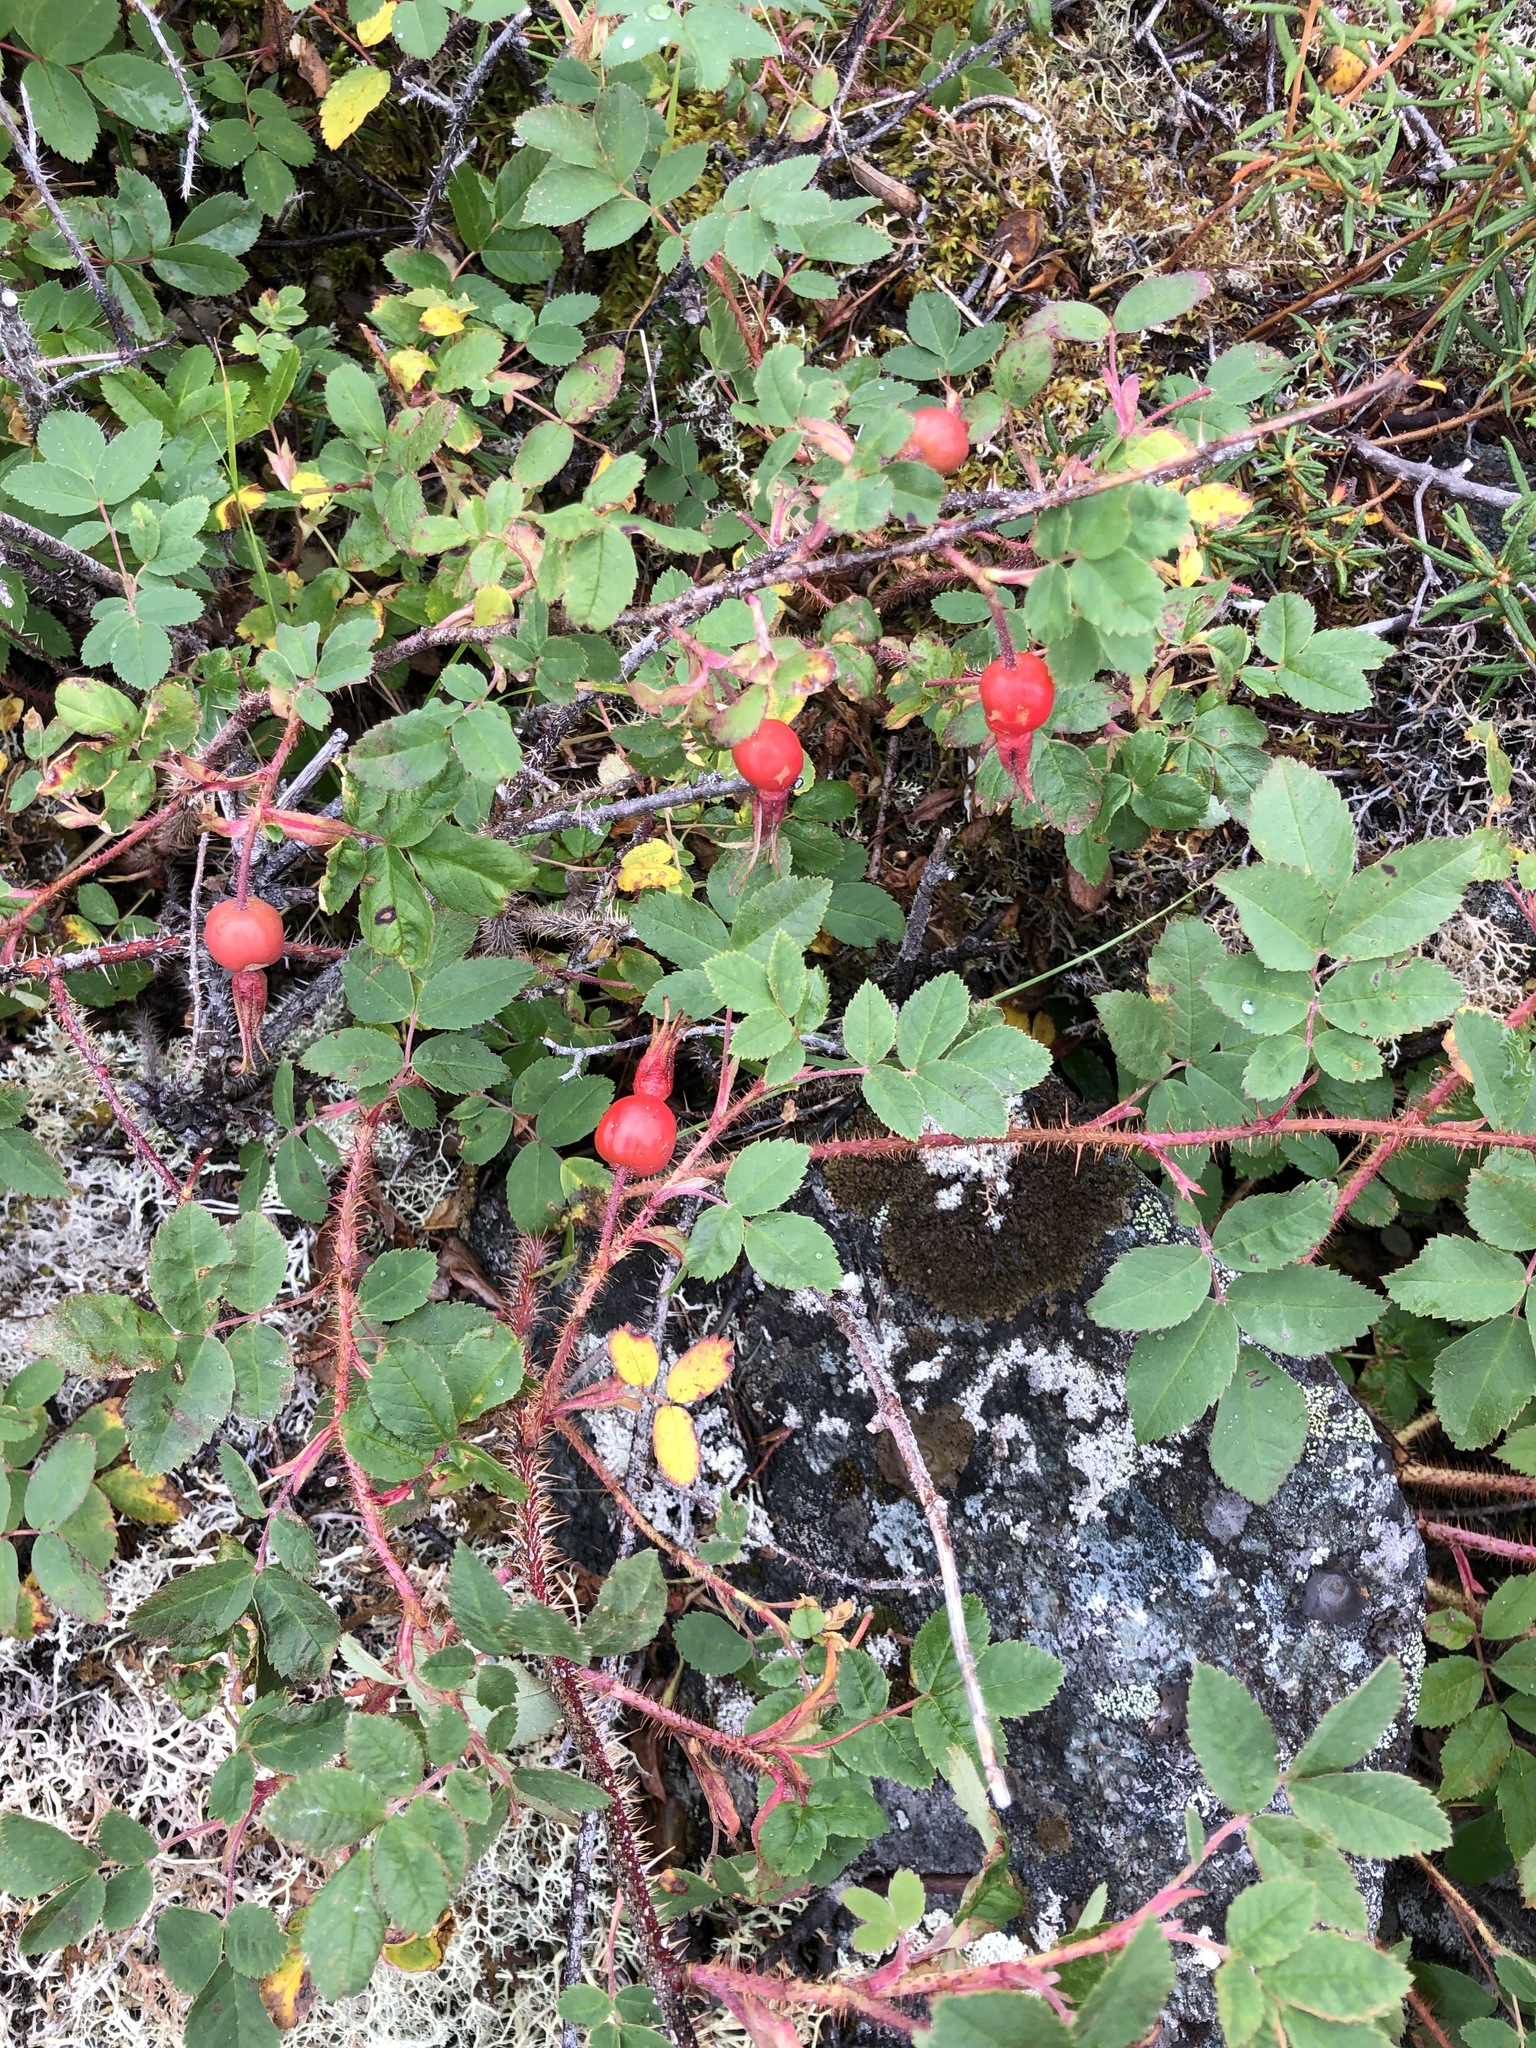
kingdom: Plantae
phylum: Tracheophyta
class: Magnoliopsida
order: Rosales
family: Rosaceae
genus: Rosa
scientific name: Rosa acicularis
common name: Prickly rose
